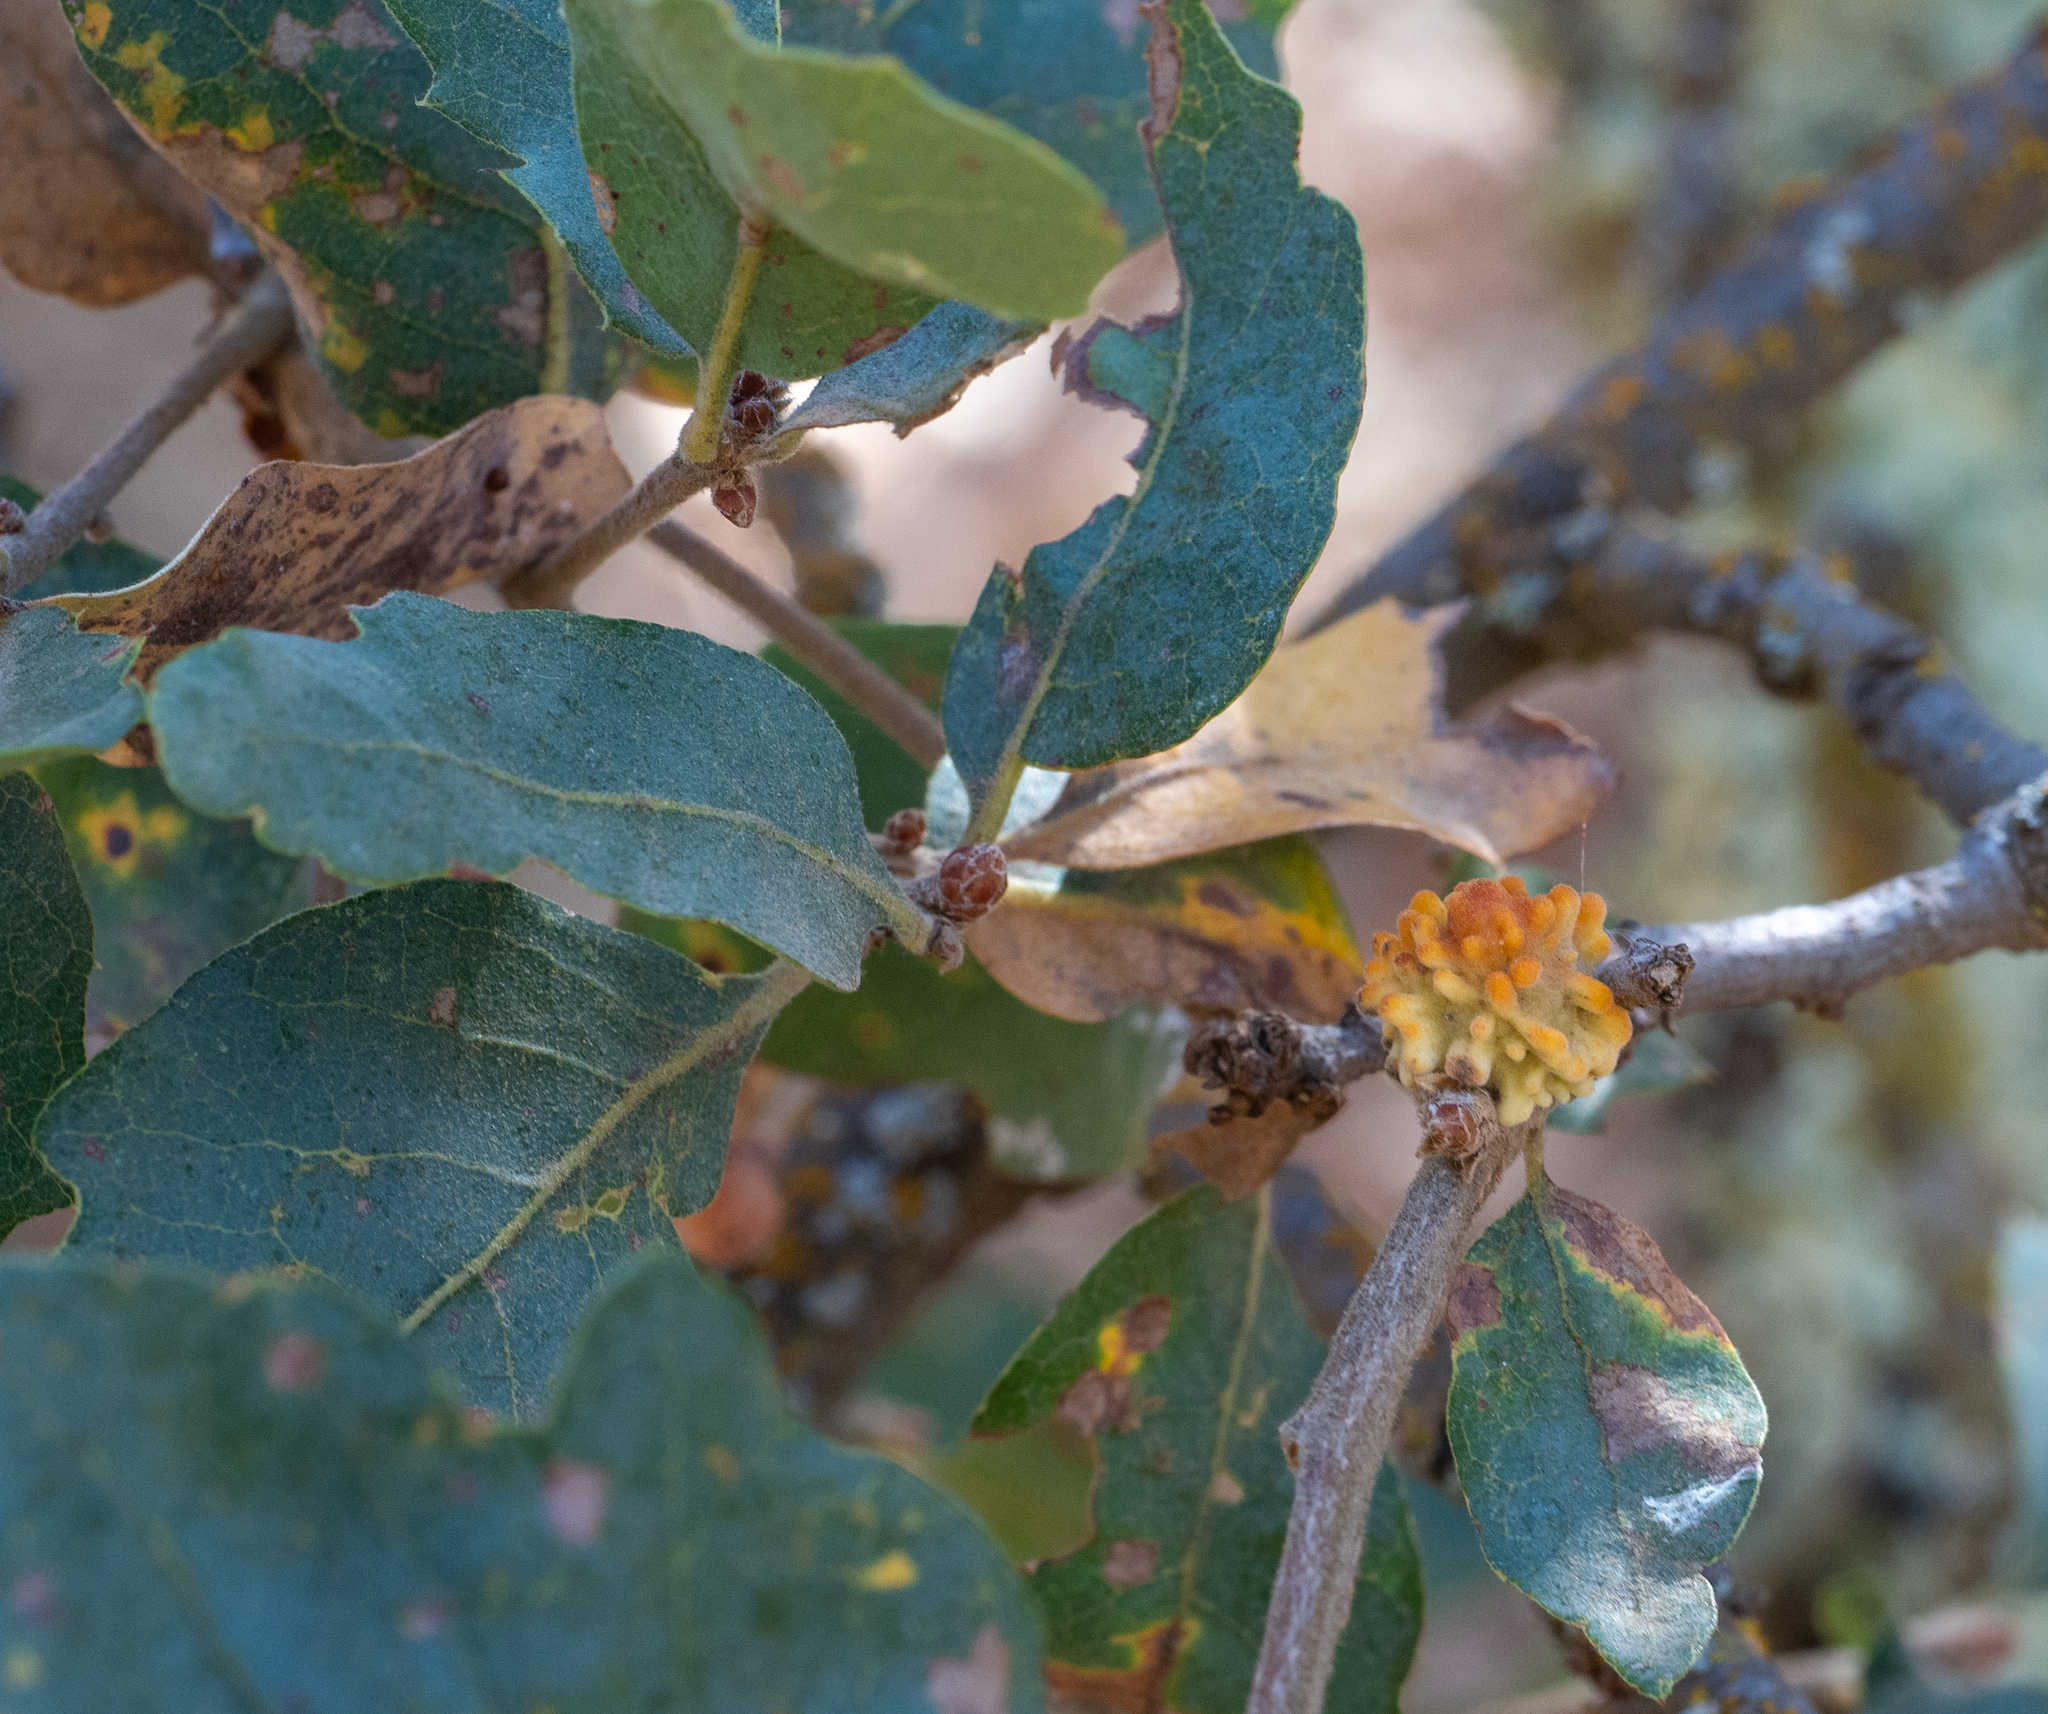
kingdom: Animalia
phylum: Arthropoda
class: Insecta
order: Hymenoptera
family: Cynipidae
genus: Burnettweldia
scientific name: Burnettweldia
